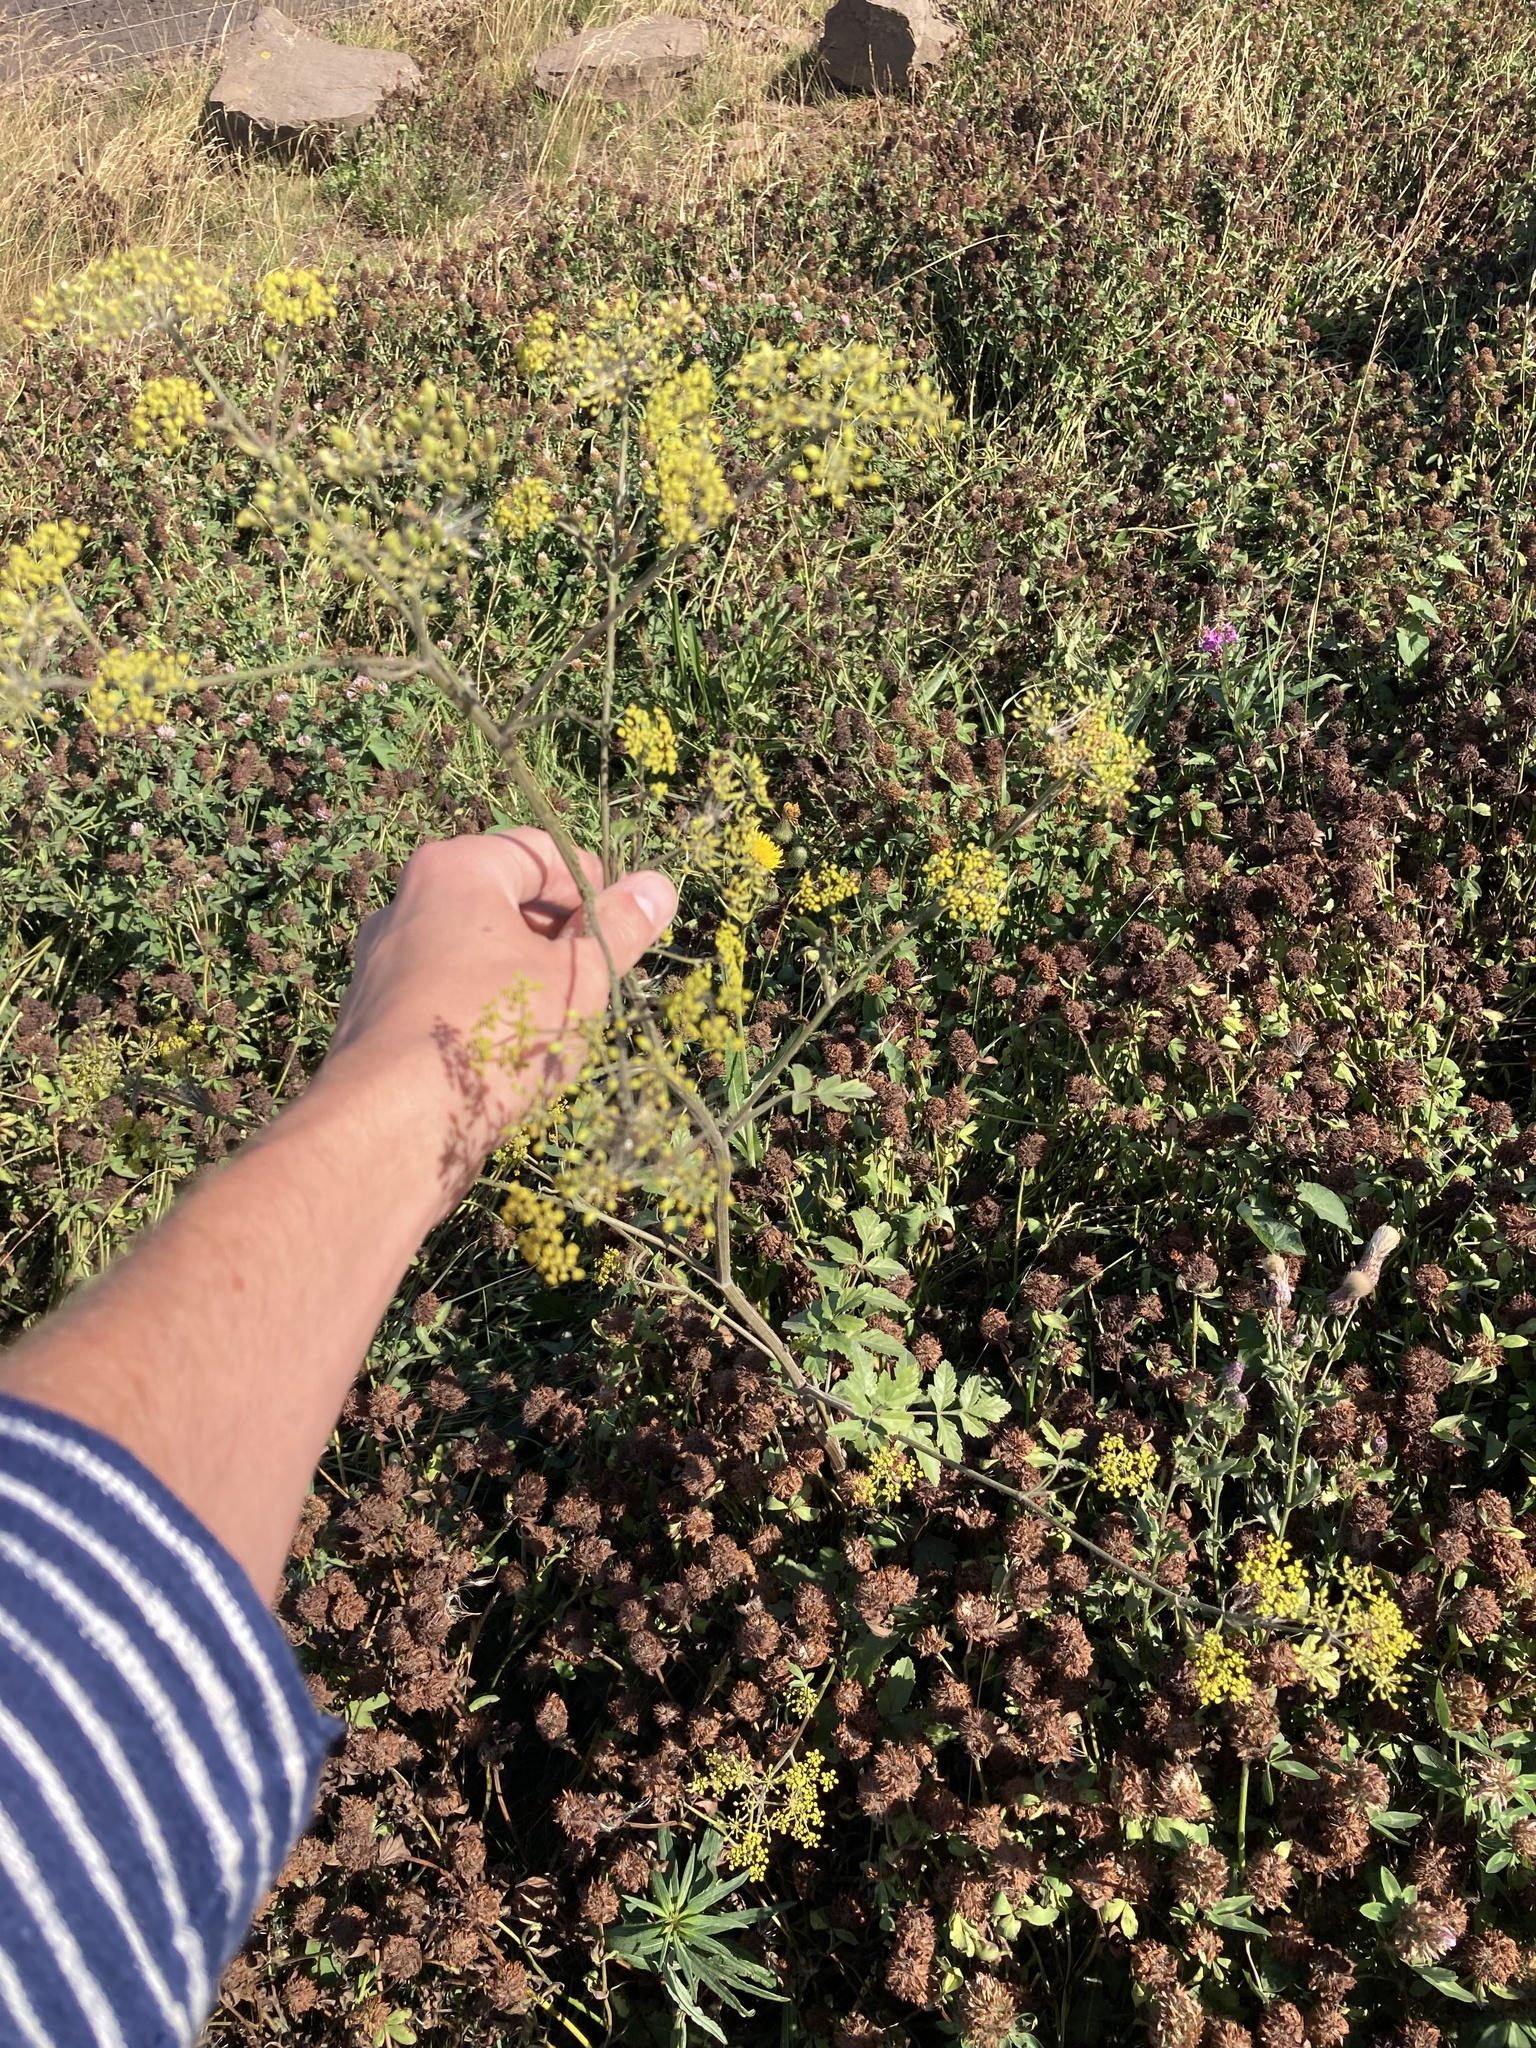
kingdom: Plantae
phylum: Tracheophyta
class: Magnoliopsida
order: Apiales
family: Apiaceae
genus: Pastinaca
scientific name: Pastinaca sativa
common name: Wild parsnip
